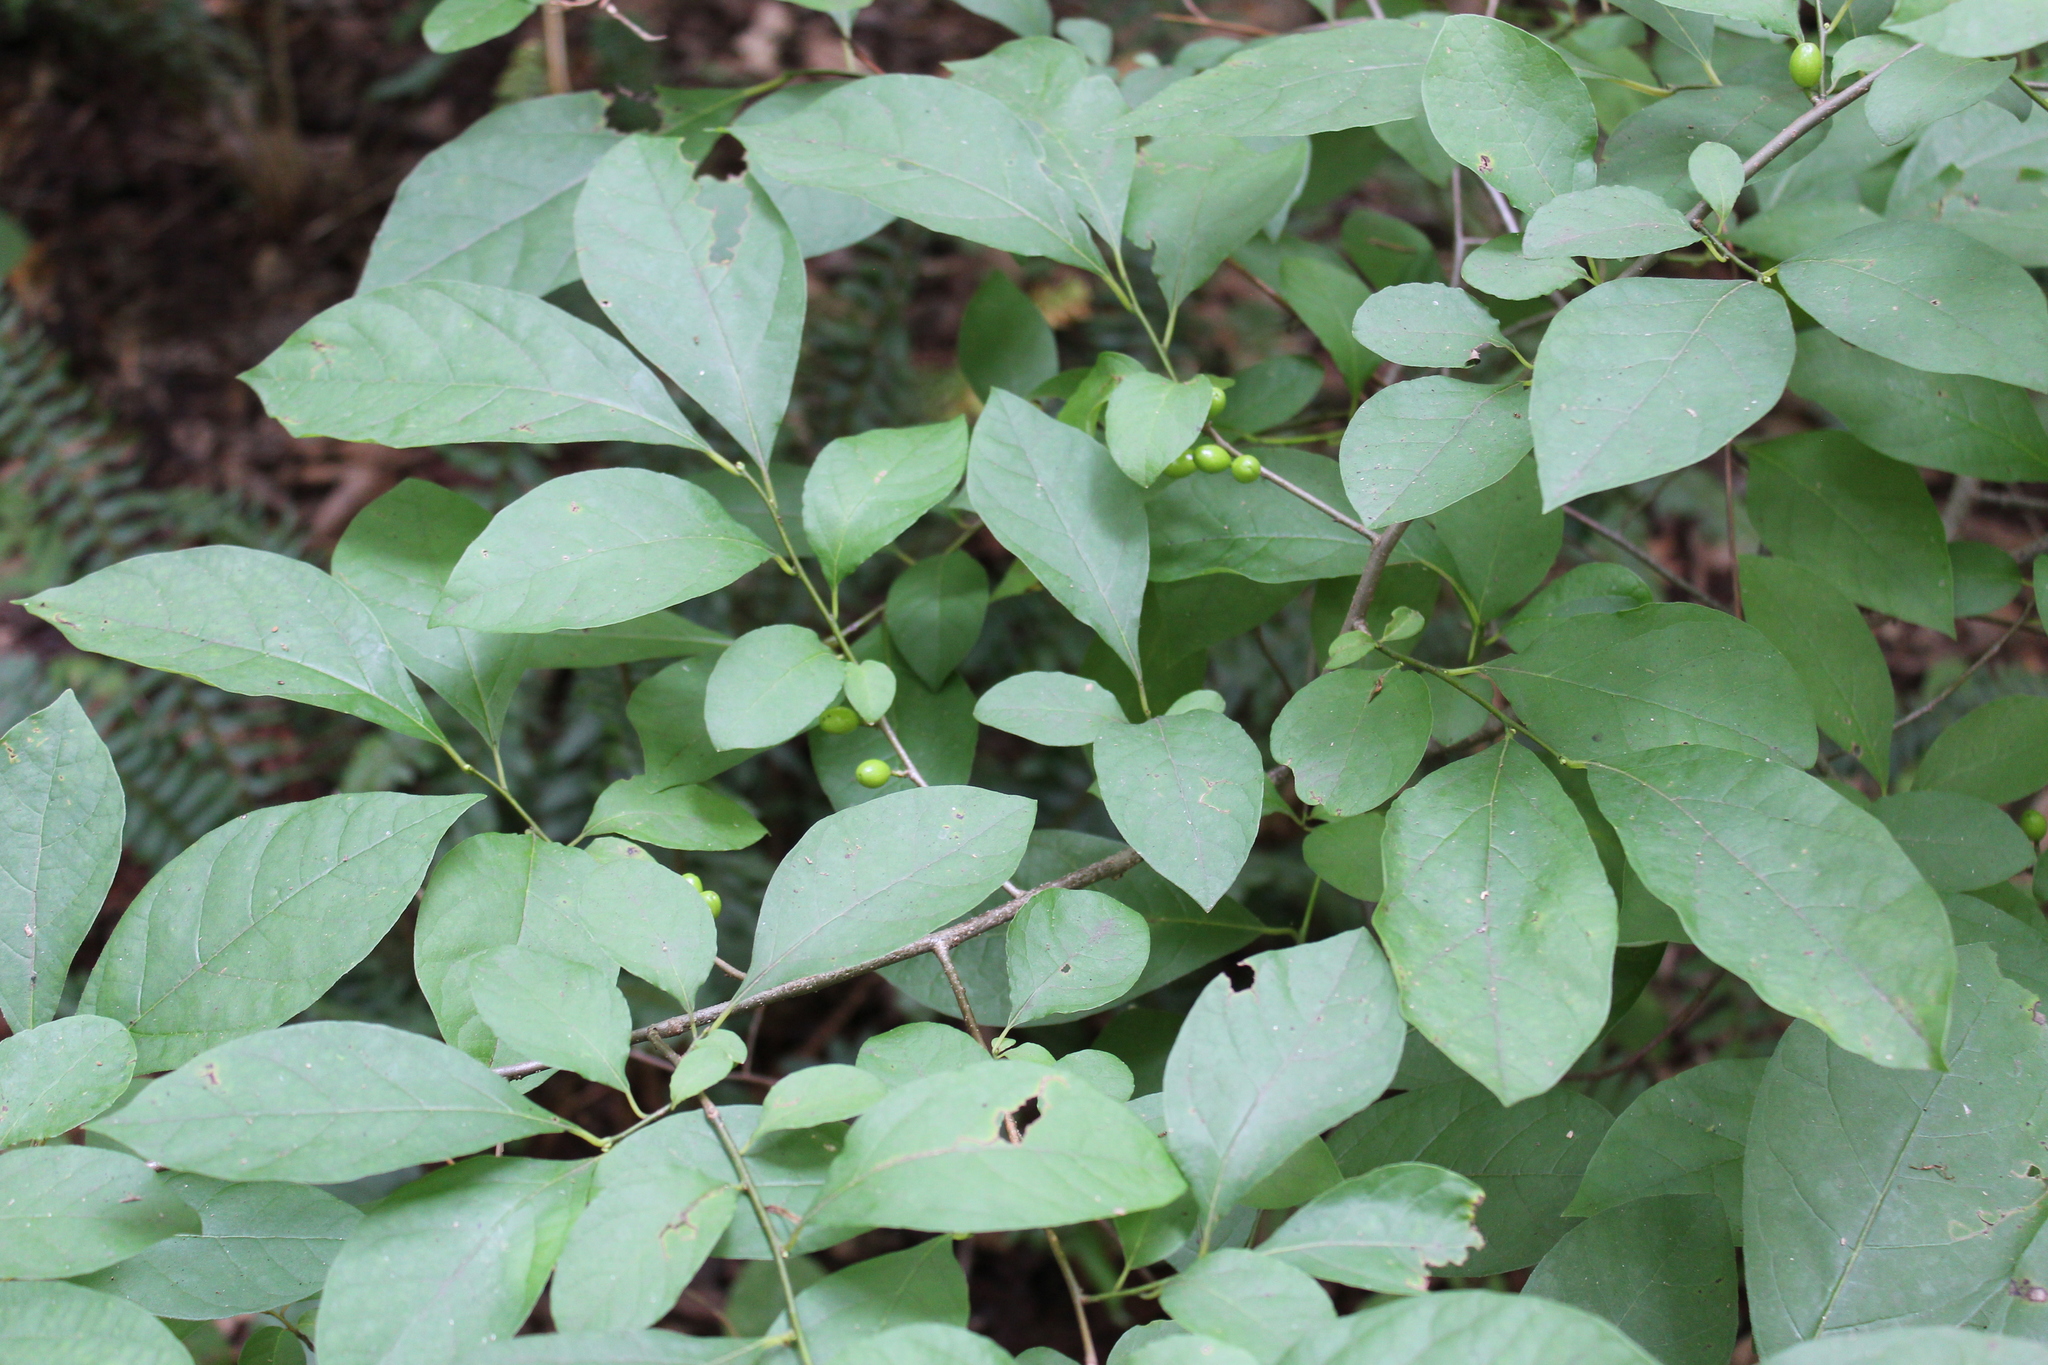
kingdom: Plantae
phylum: Tracheophyta
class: Magnoliopsida
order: Laurales
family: Lauraceae
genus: Lindera
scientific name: Lindera benzoin
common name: Spicebush
